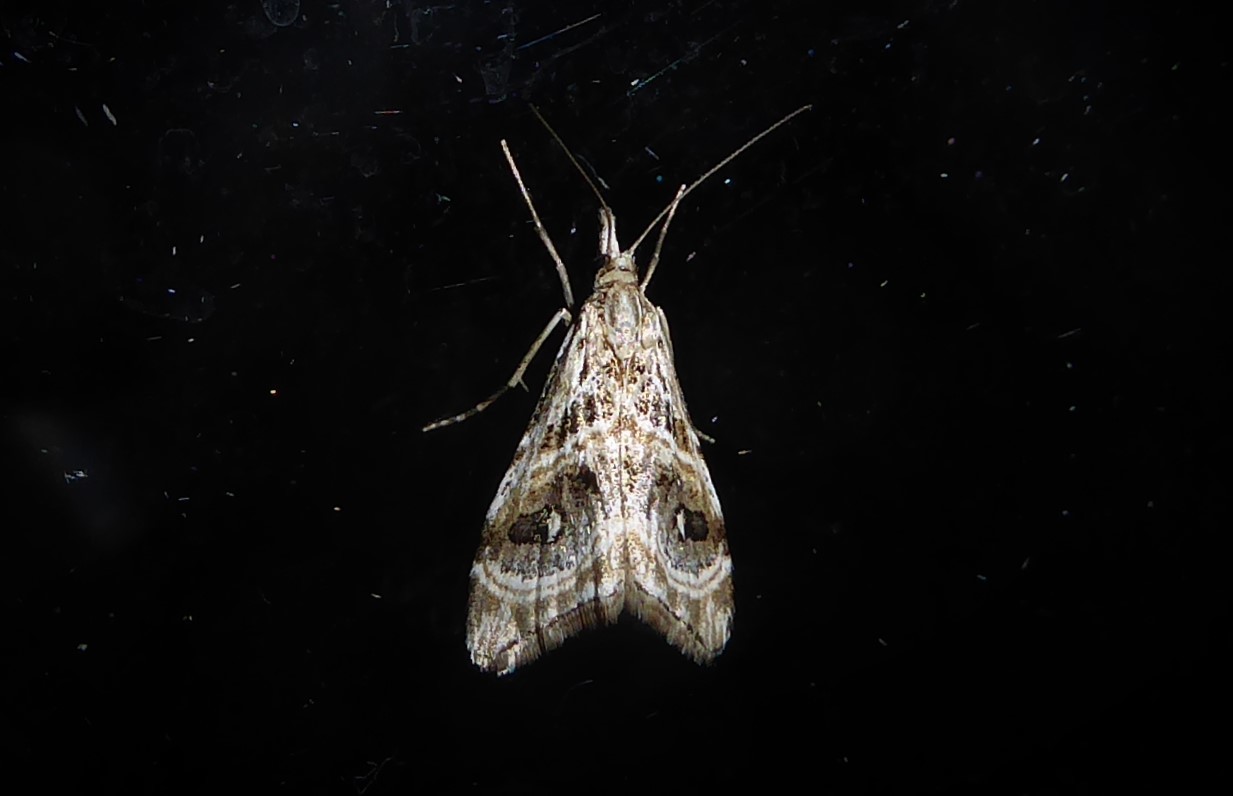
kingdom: Animalia
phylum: Arthropoda
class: Insecta
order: Lepidoptera
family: Crambidae
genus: Gadira
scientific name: Gadira acerella
